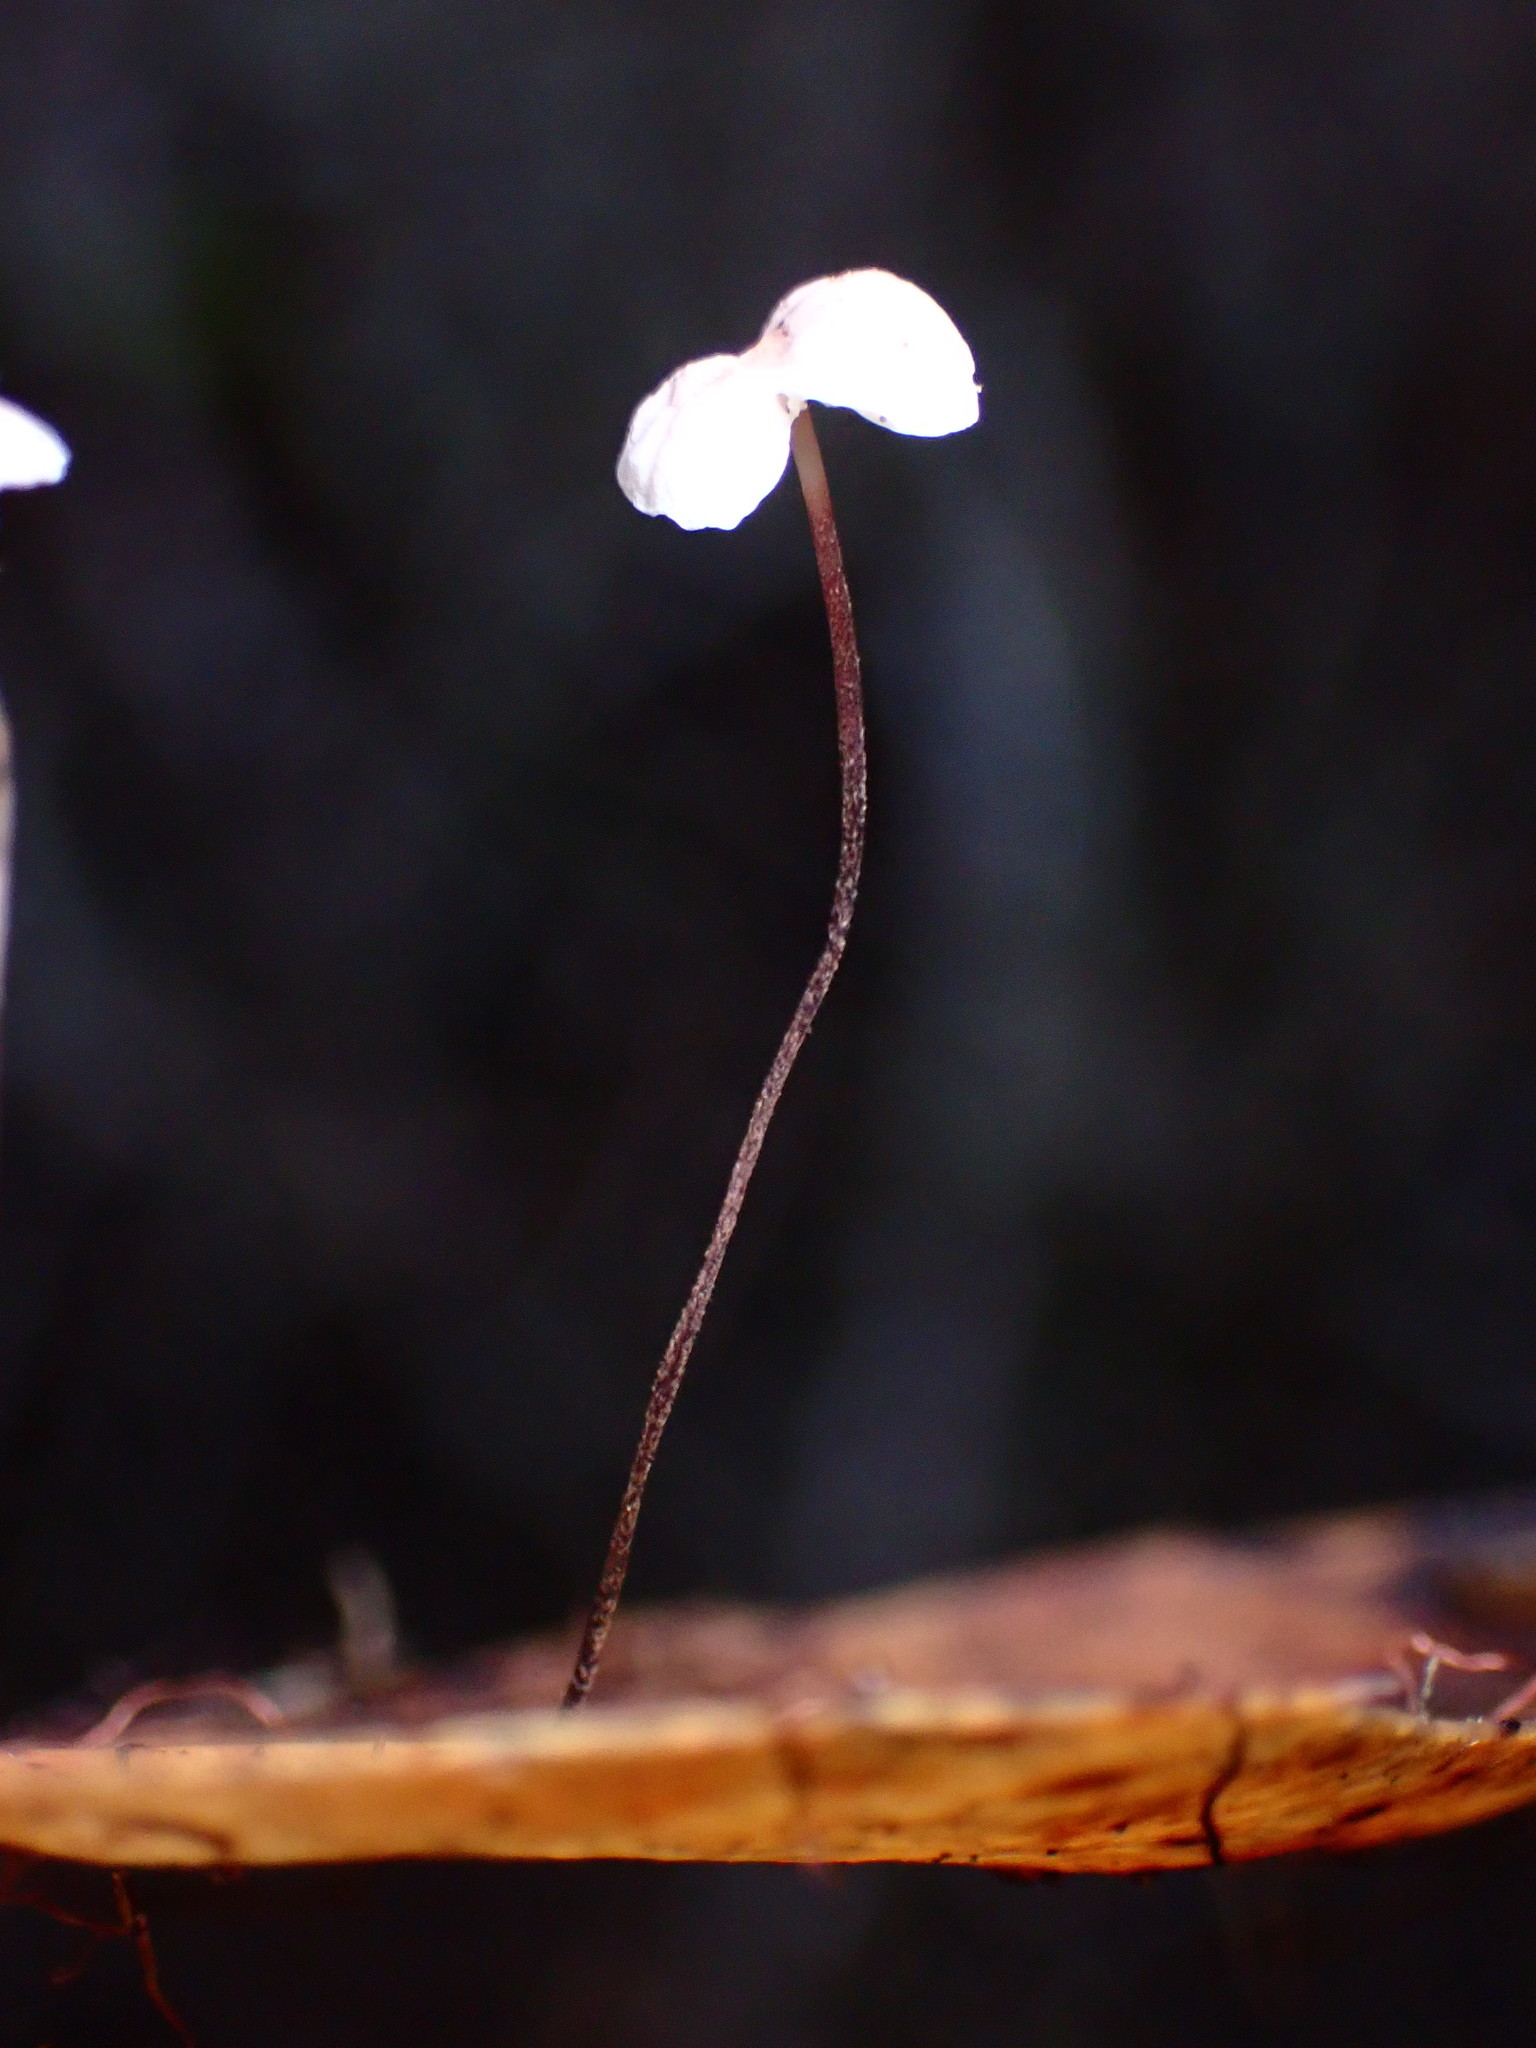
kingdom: Fungi
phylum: Basidiomycota
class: Agaricomycetes
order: Agaricales
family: Omphalotaceae
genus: Collybiopsis
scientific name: Collybiopsis quercophila
